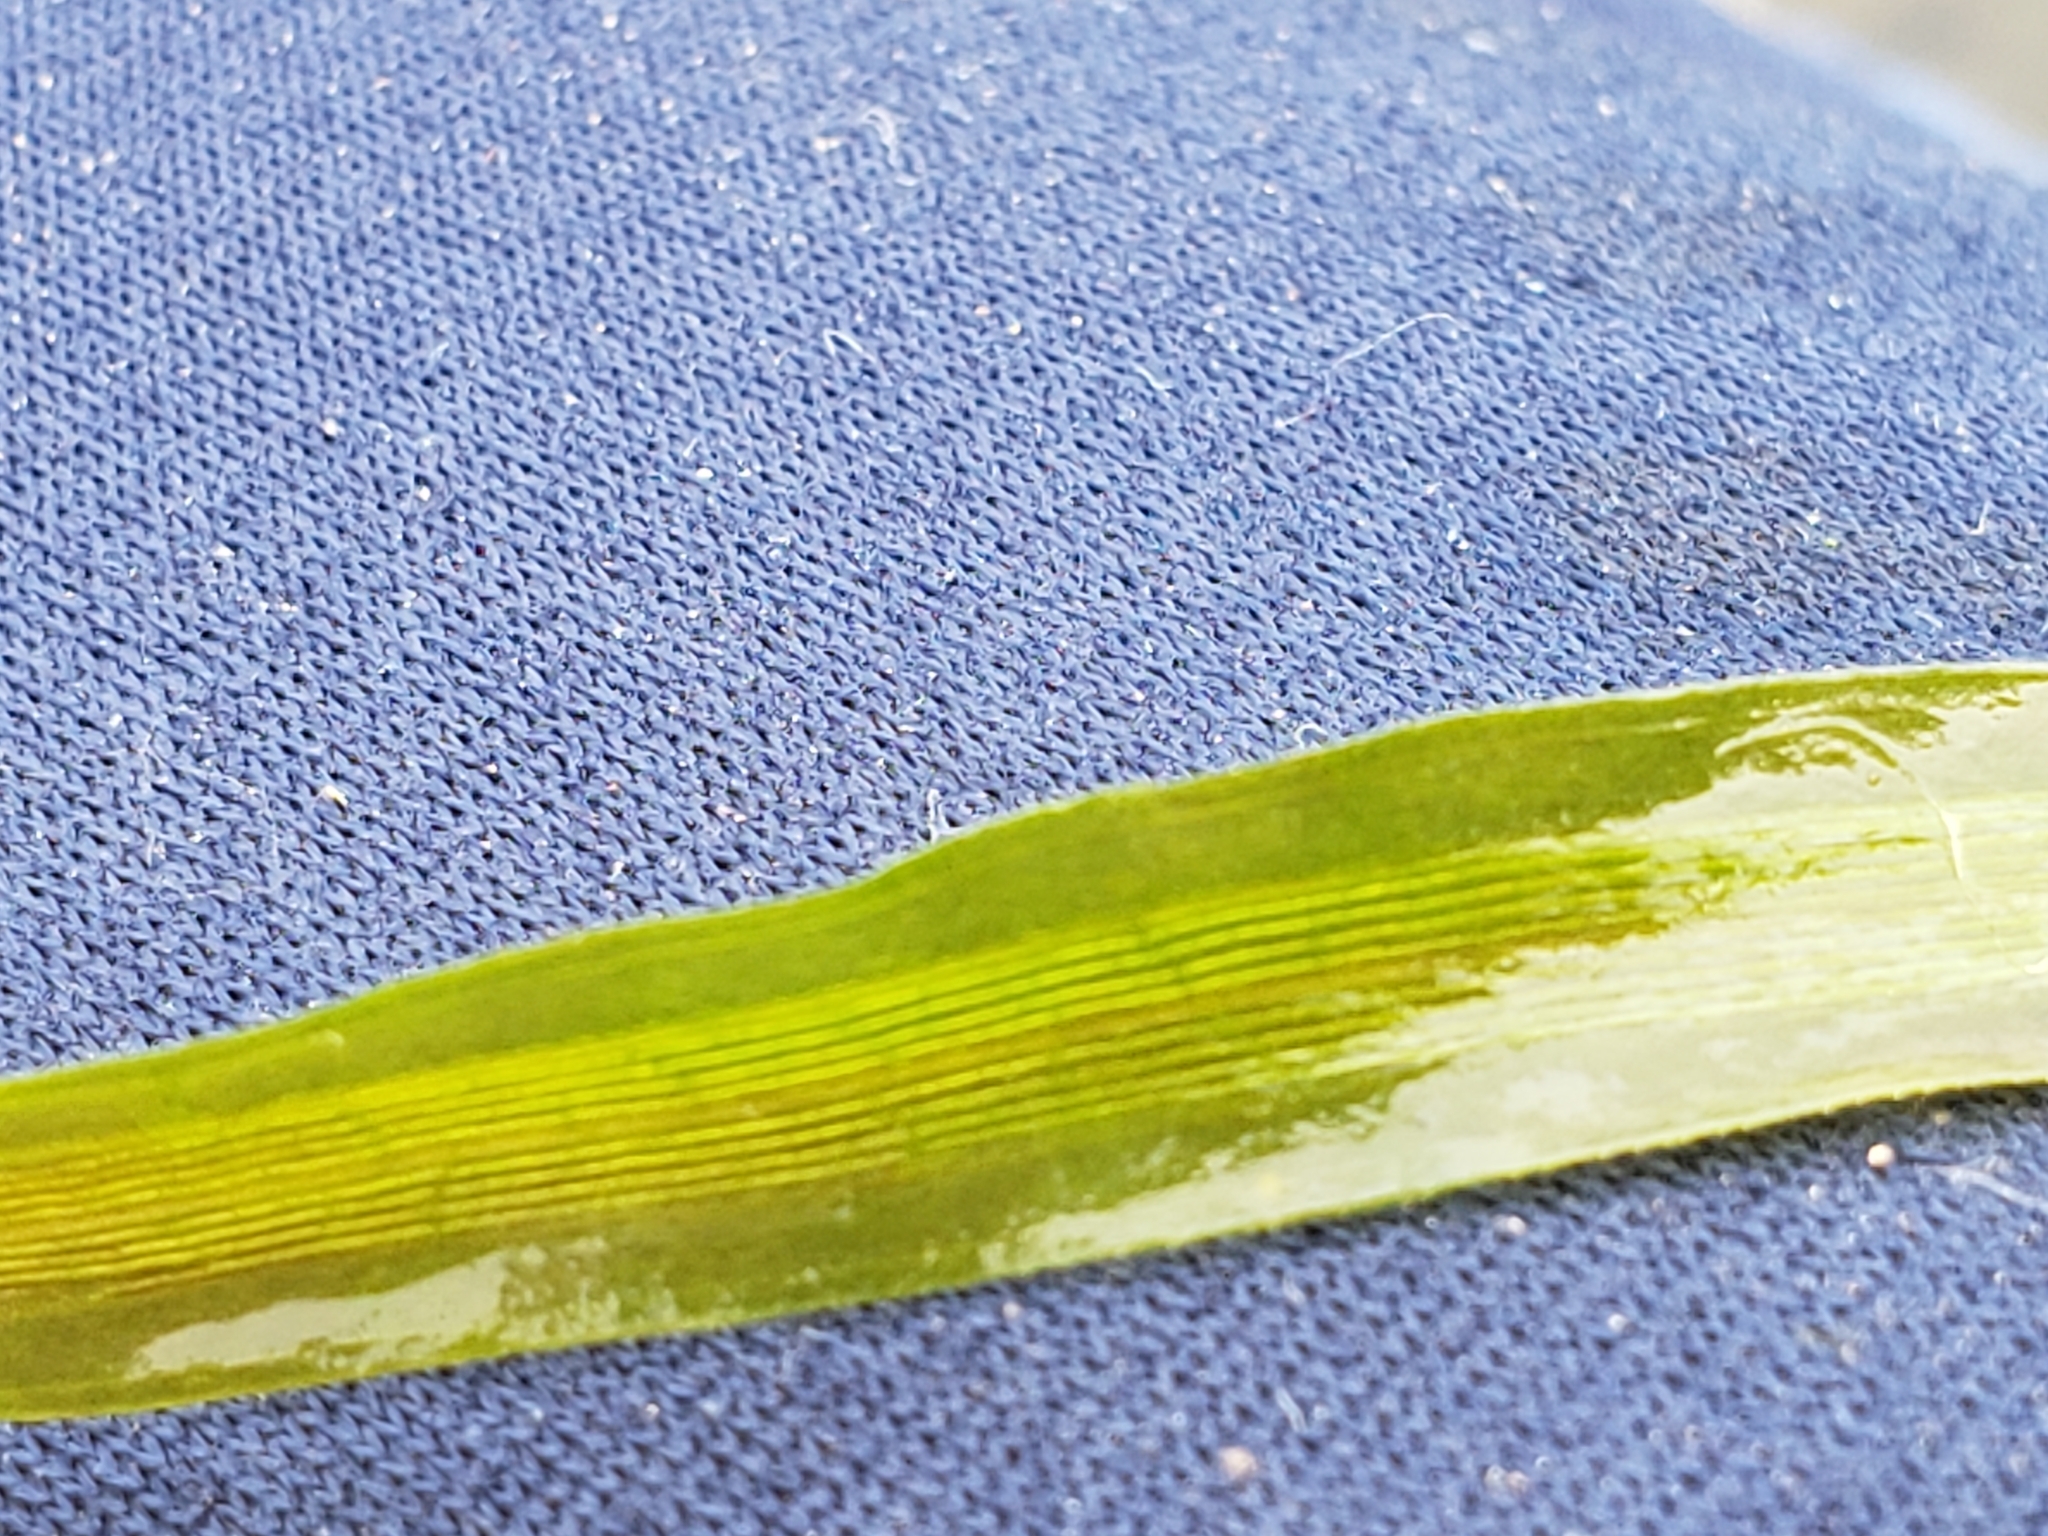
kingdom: Plantae
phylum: Tracheophyta
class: Liliopsida
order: Alismatales
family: Hydrocharitaceae
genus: Vallisneria
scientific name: Vallisneria americana
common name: American eelgrass
